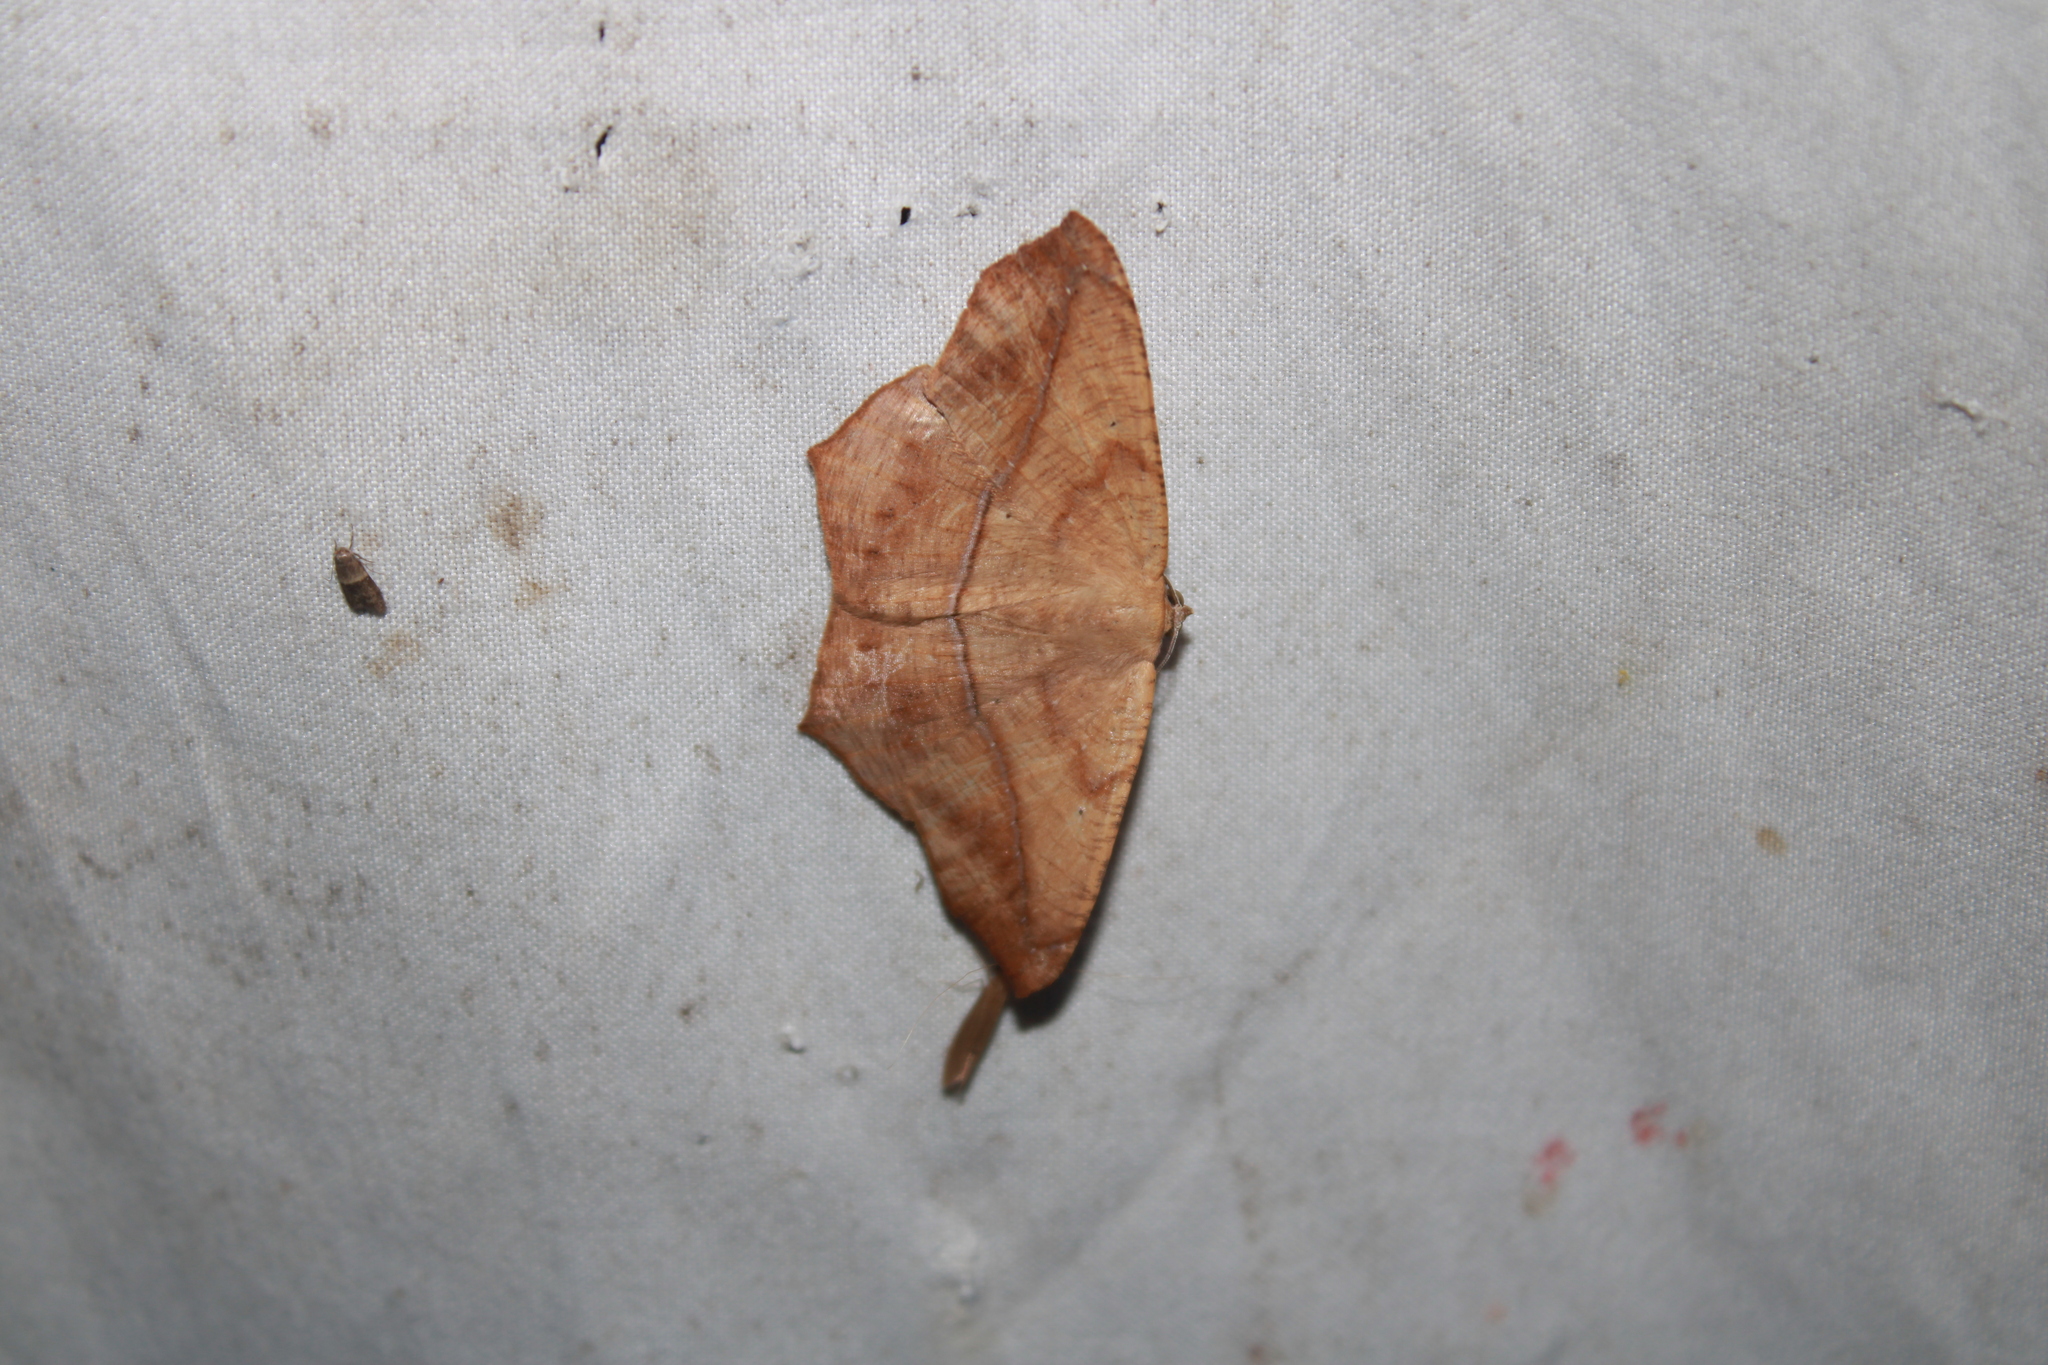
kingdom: Animalia
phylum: Arthropoda
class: Insecta
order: Lepidoptera
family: Geometridae
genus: Prochoerodes
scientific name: Prochoerodes lineola
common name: Large maple spanworm
